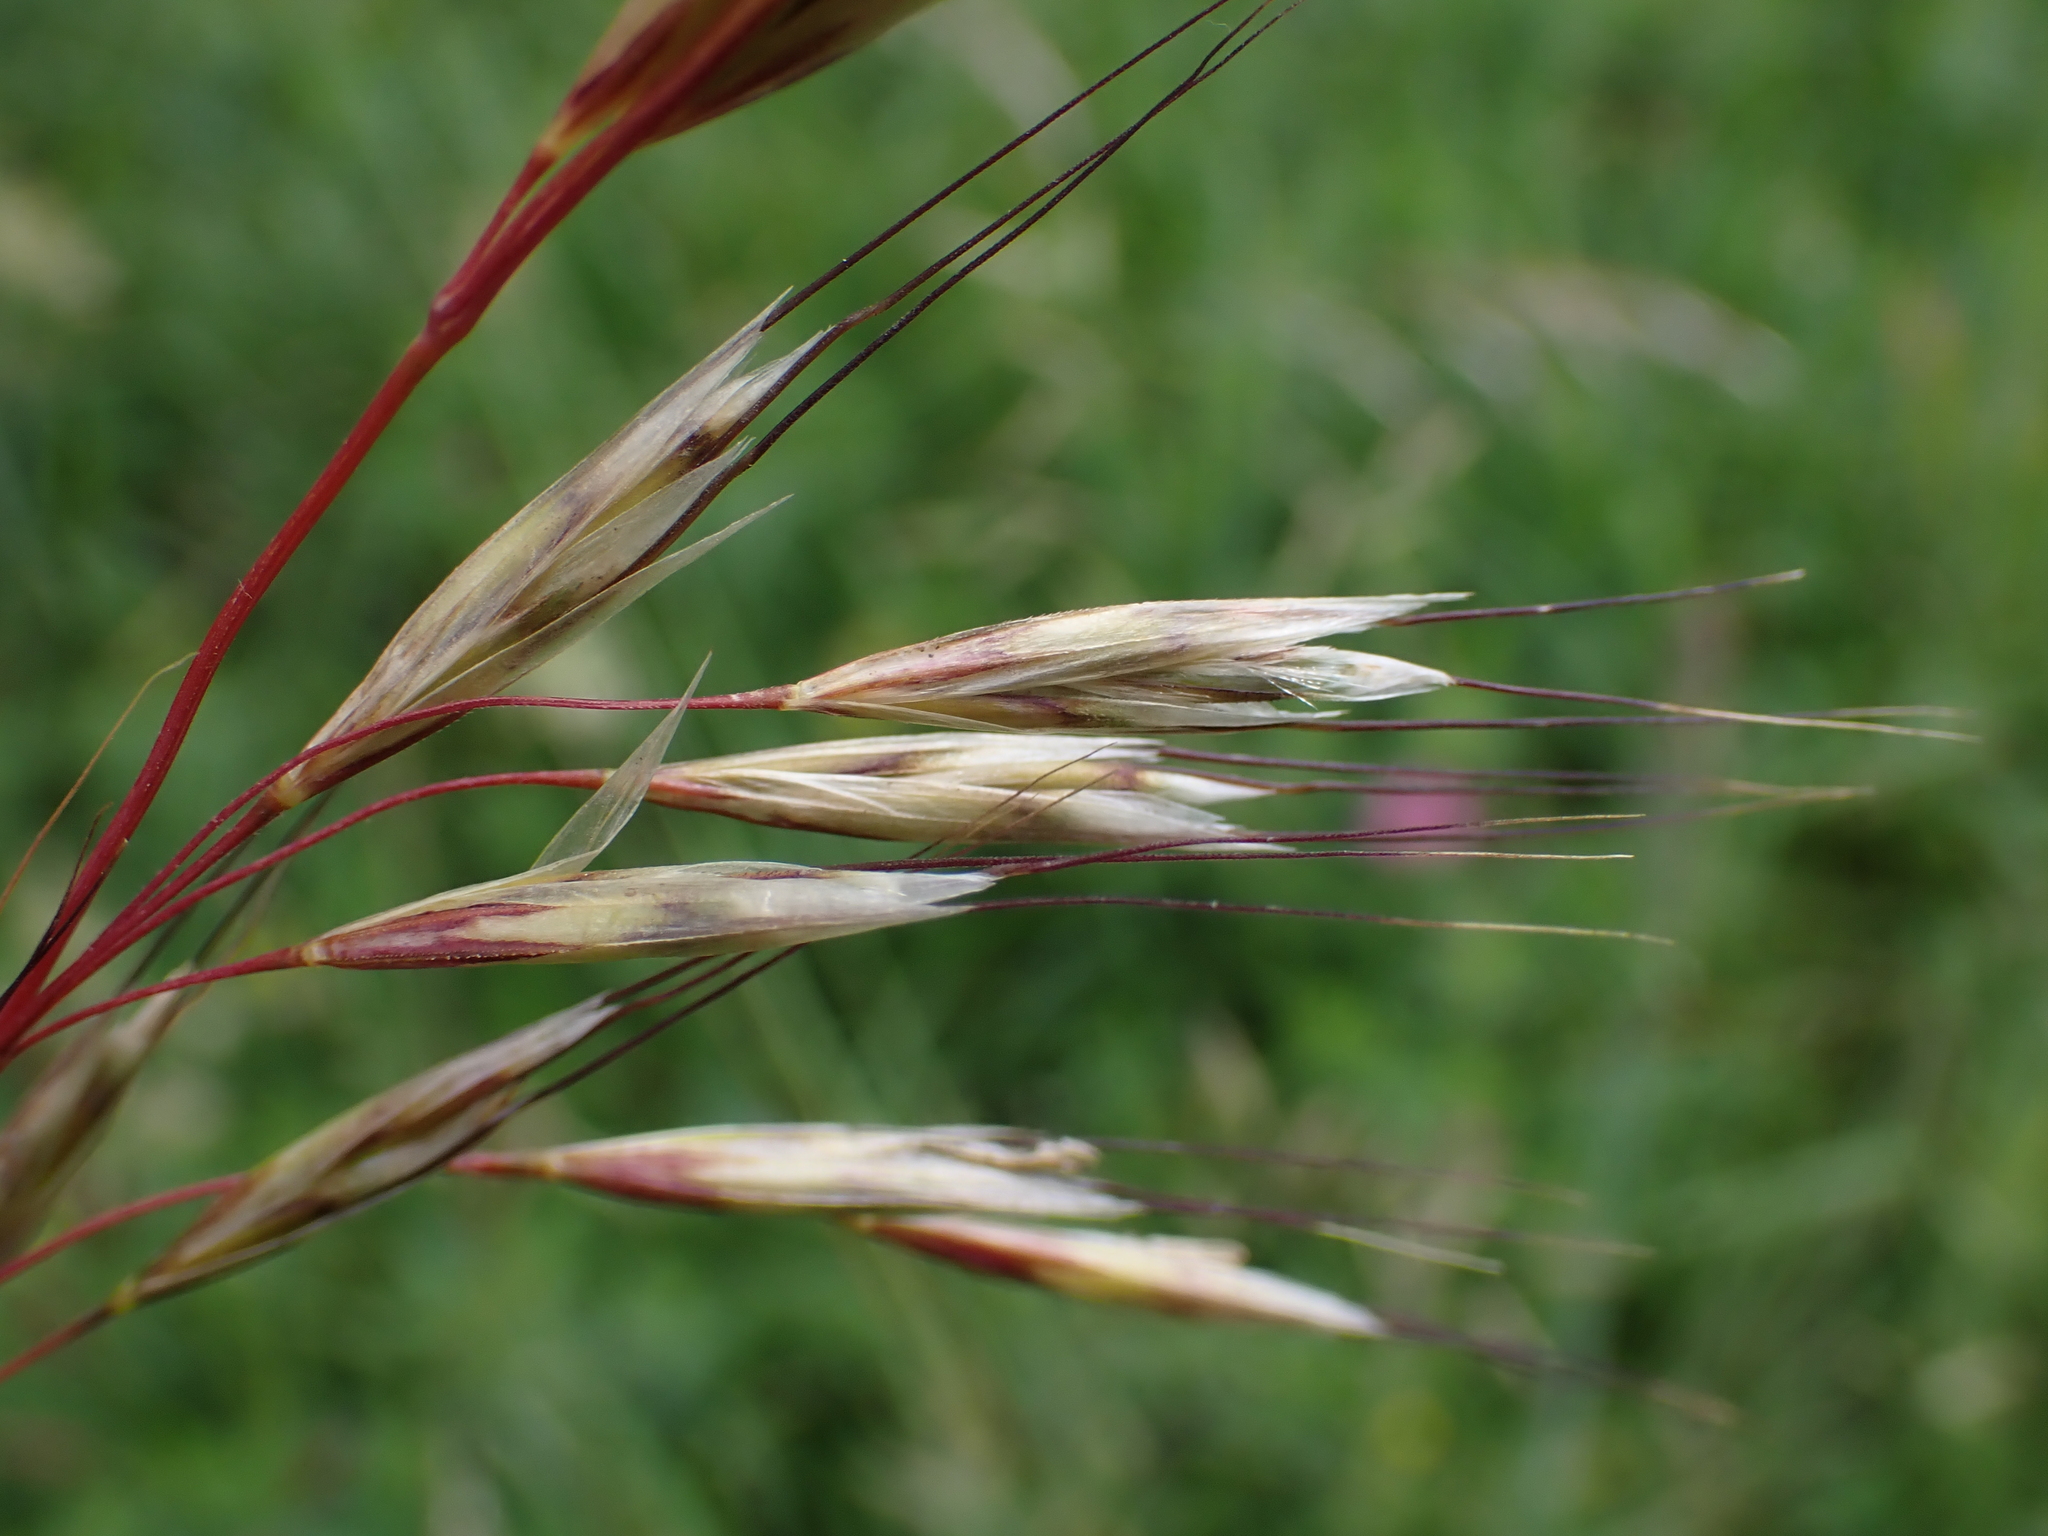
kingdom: Plantae
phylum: Tracheophyta
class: Liliopsida
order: Poales
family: Poaceae
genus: Avenula
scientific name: Avenula pubescens
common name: Downy alpine oatgrass
